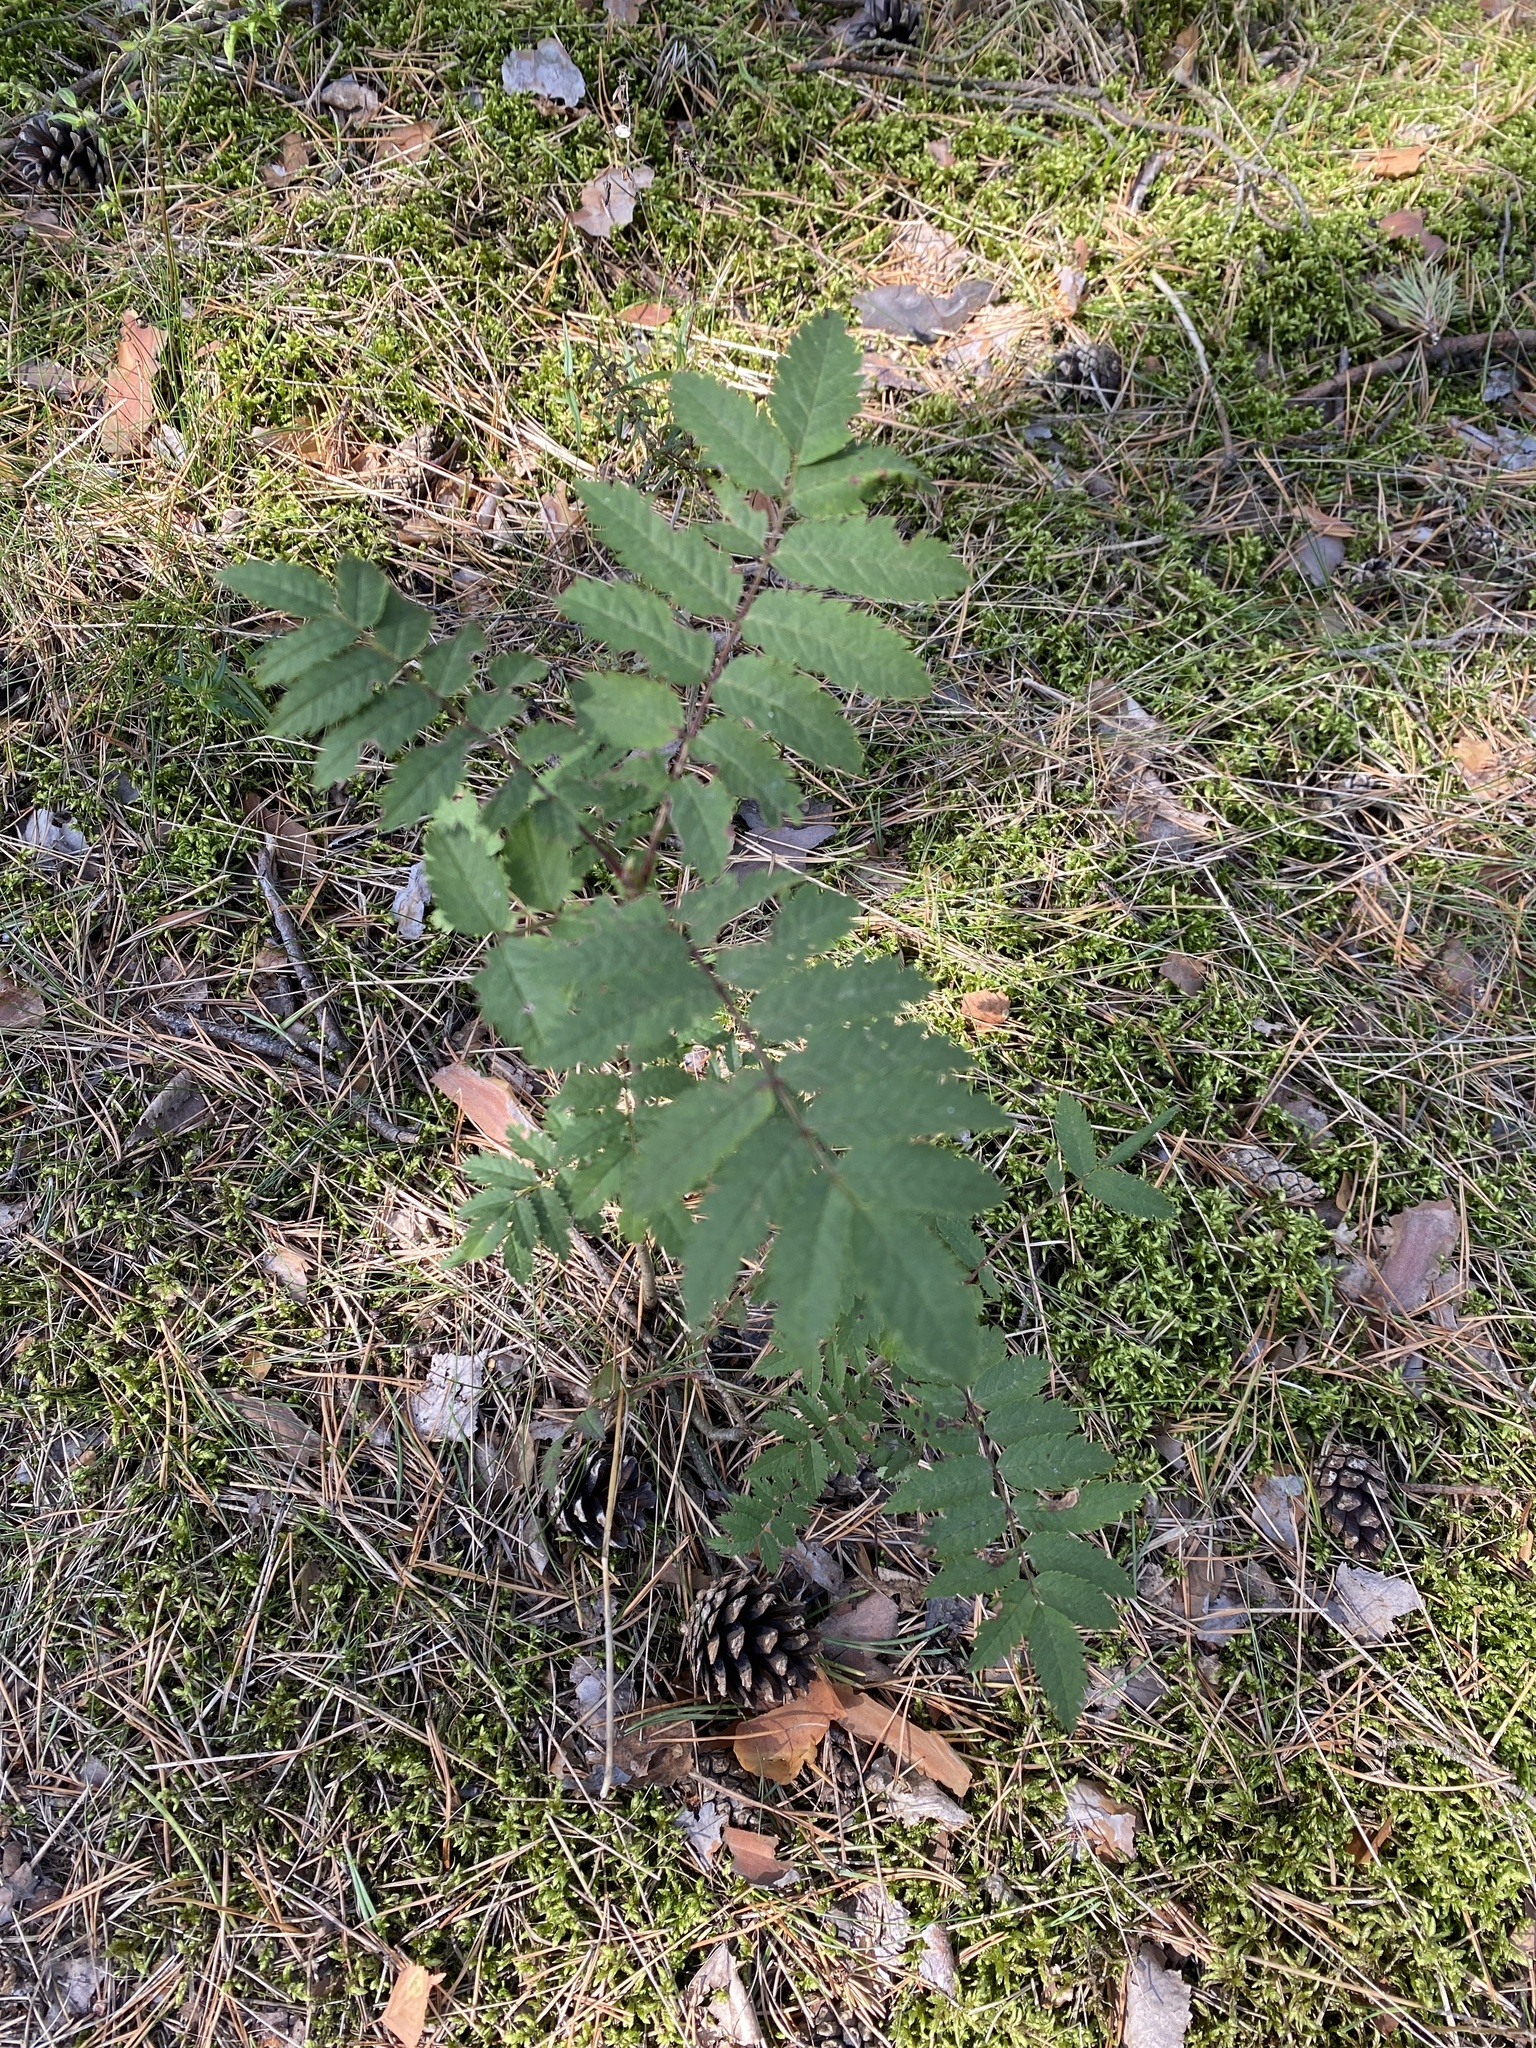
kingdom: Plantae
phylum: Tracheophyta
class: Magnoliopsida
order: Rosales
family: Rosaceae
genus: Sorbus
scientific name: Sorbus aucuparia
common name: Rowan
